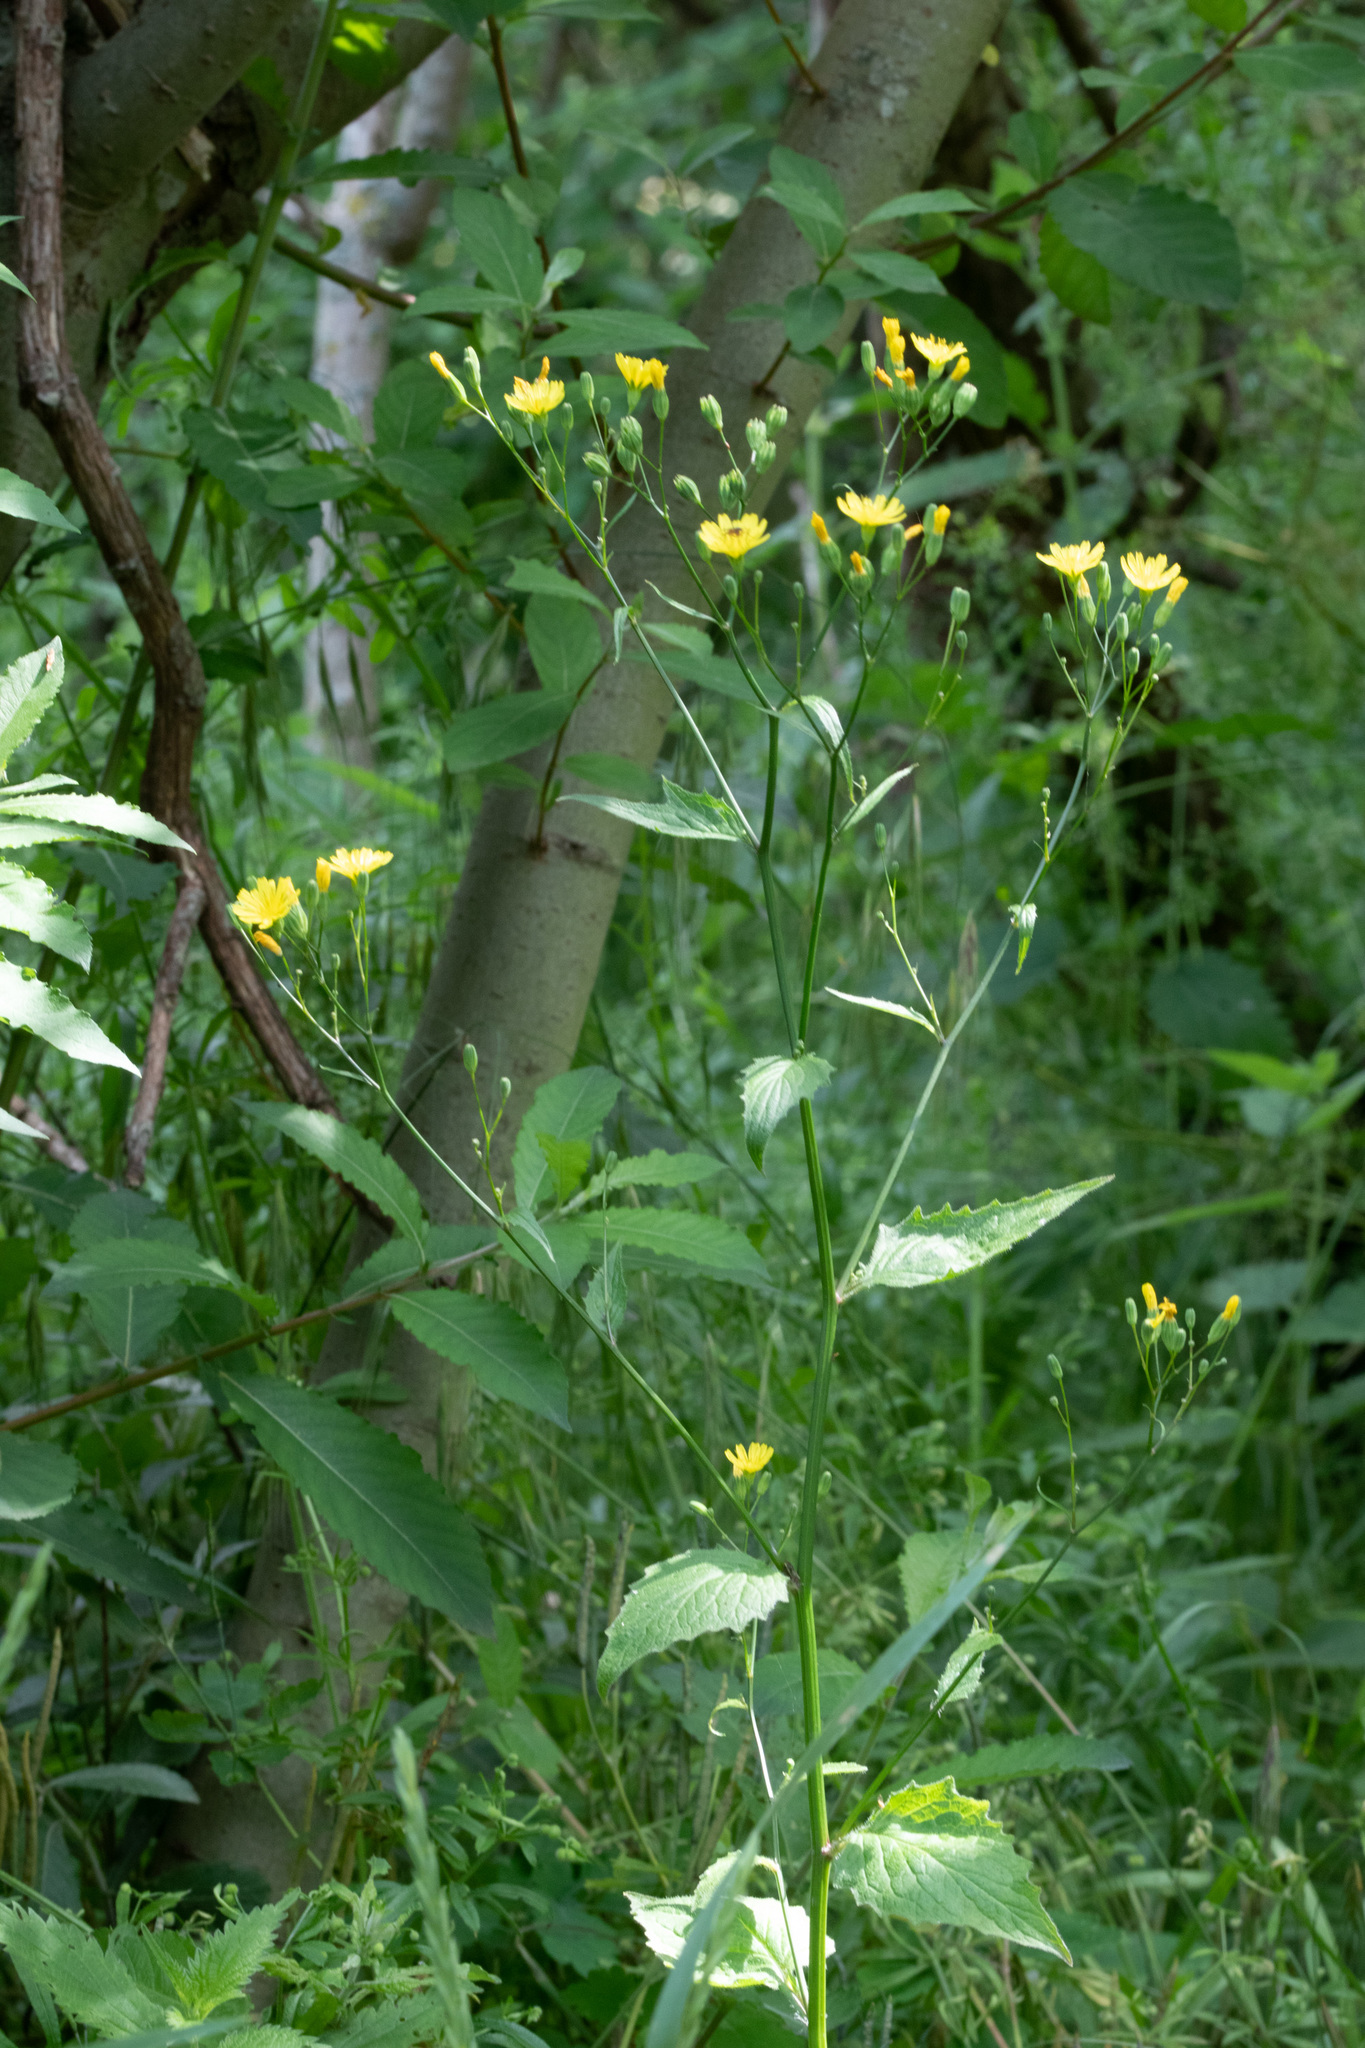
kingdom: Plantae
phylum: Tracheophyta
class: Magnoliopsida
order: Asterales
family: Asteraceae
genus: Lapsana
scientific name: Lapsana communis
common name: Nipplewort
